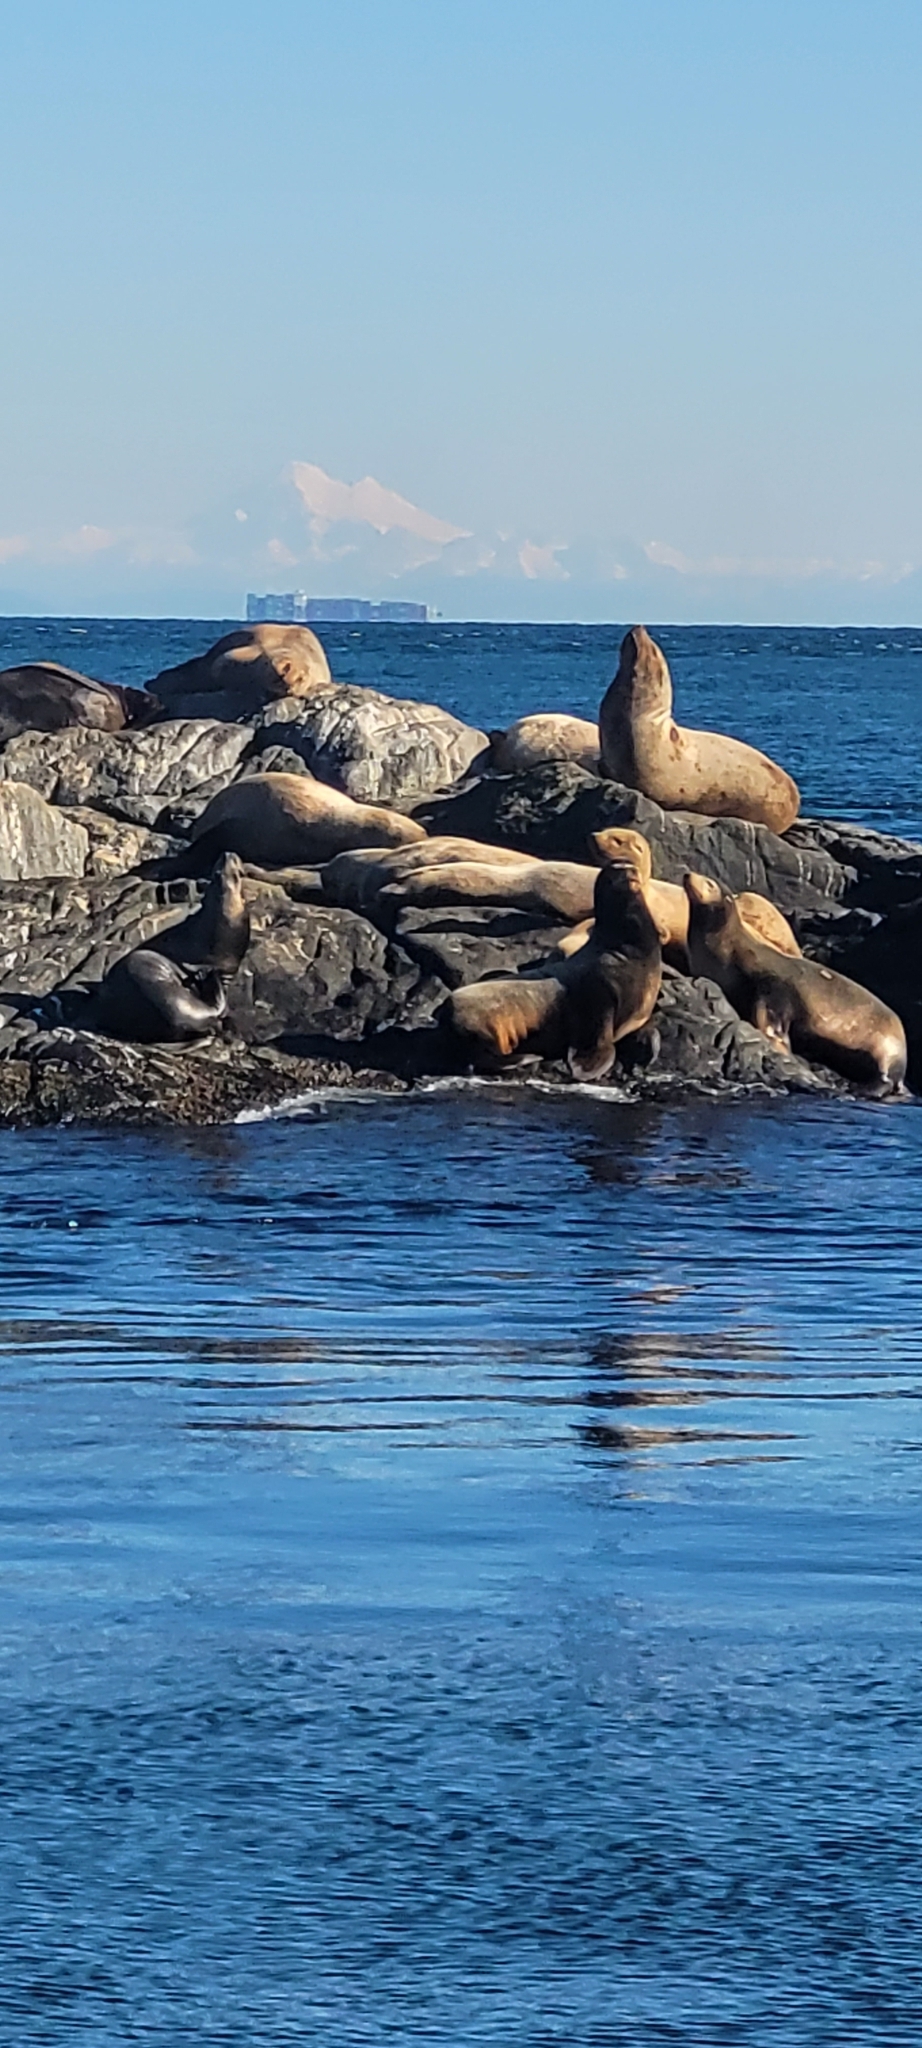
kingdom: Animalia
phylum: Chordata
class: Mammalia
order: Carnivora
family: Otariidae
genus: Zalophus
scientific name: Zalophus californianus
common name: California sea lion
